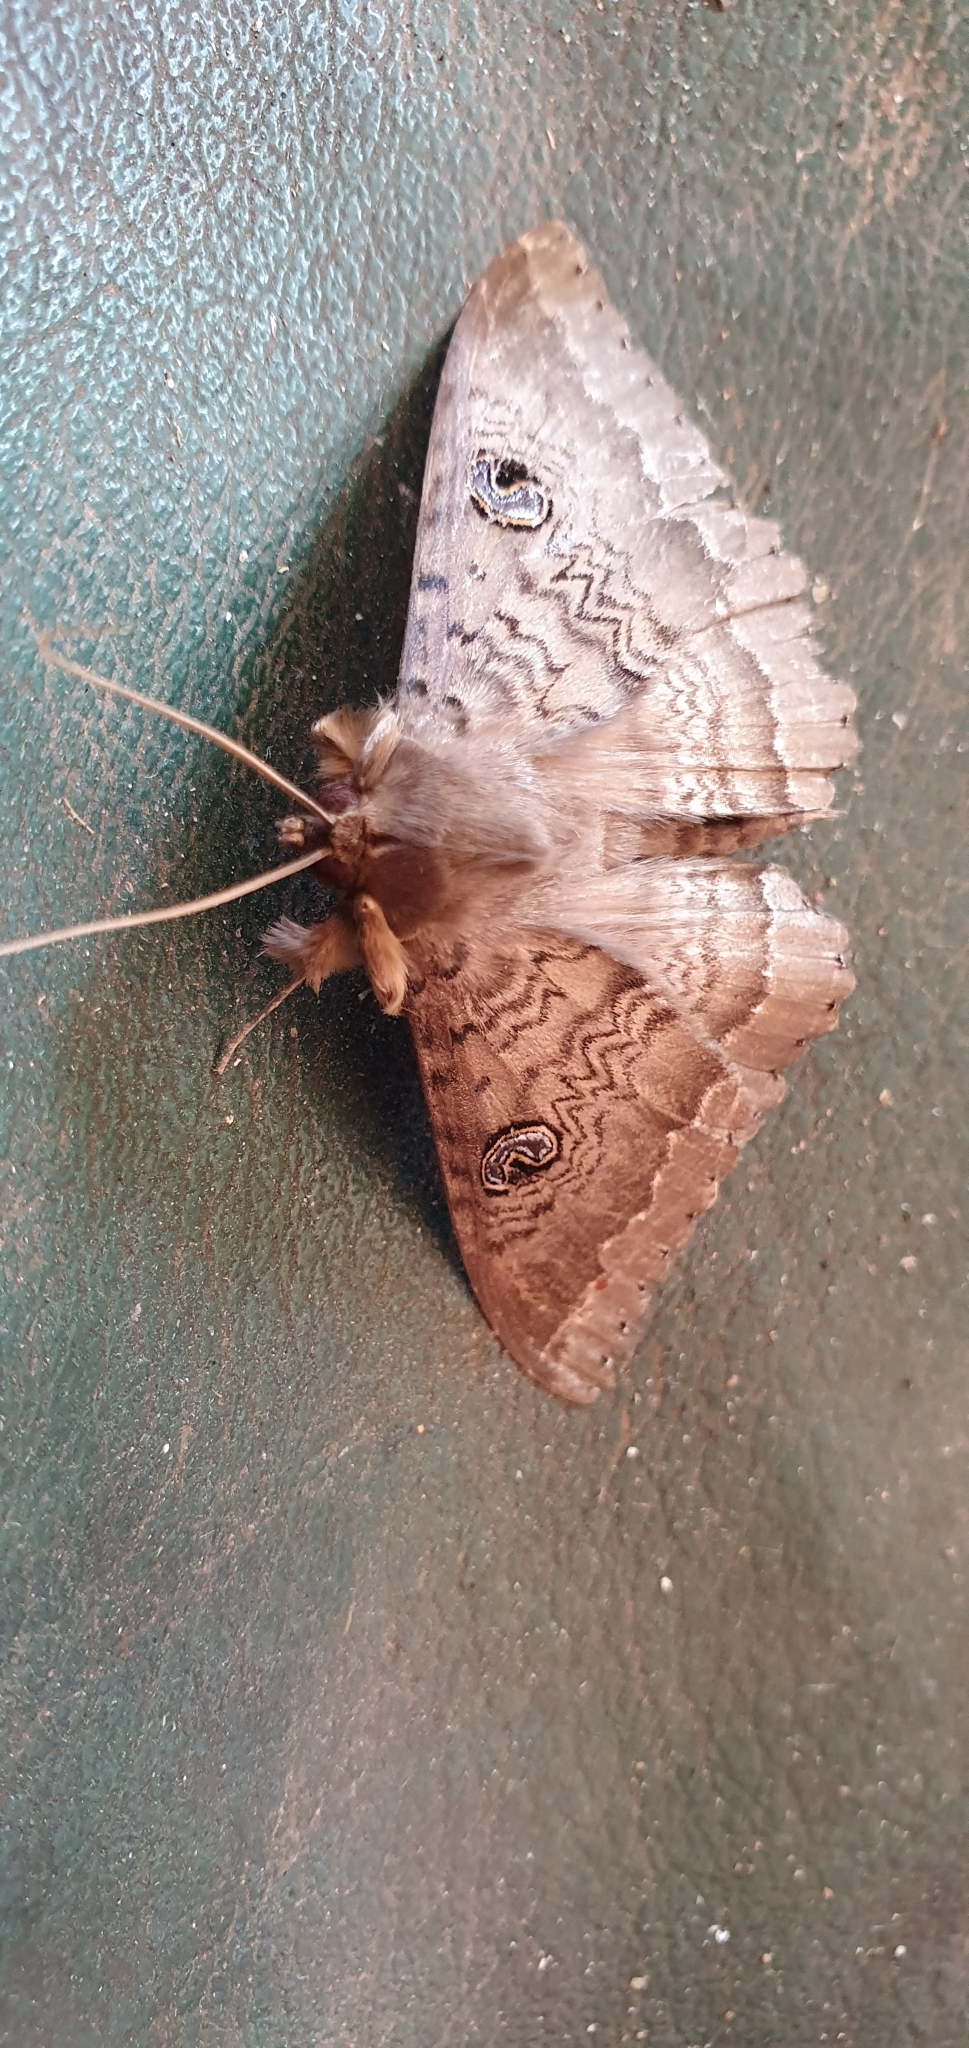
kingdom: Animalia
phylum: Arthropoda
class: Insecta
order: Lepidoptera
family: Erebidae
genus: Speiredonia
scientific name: Speiredonia spectans
